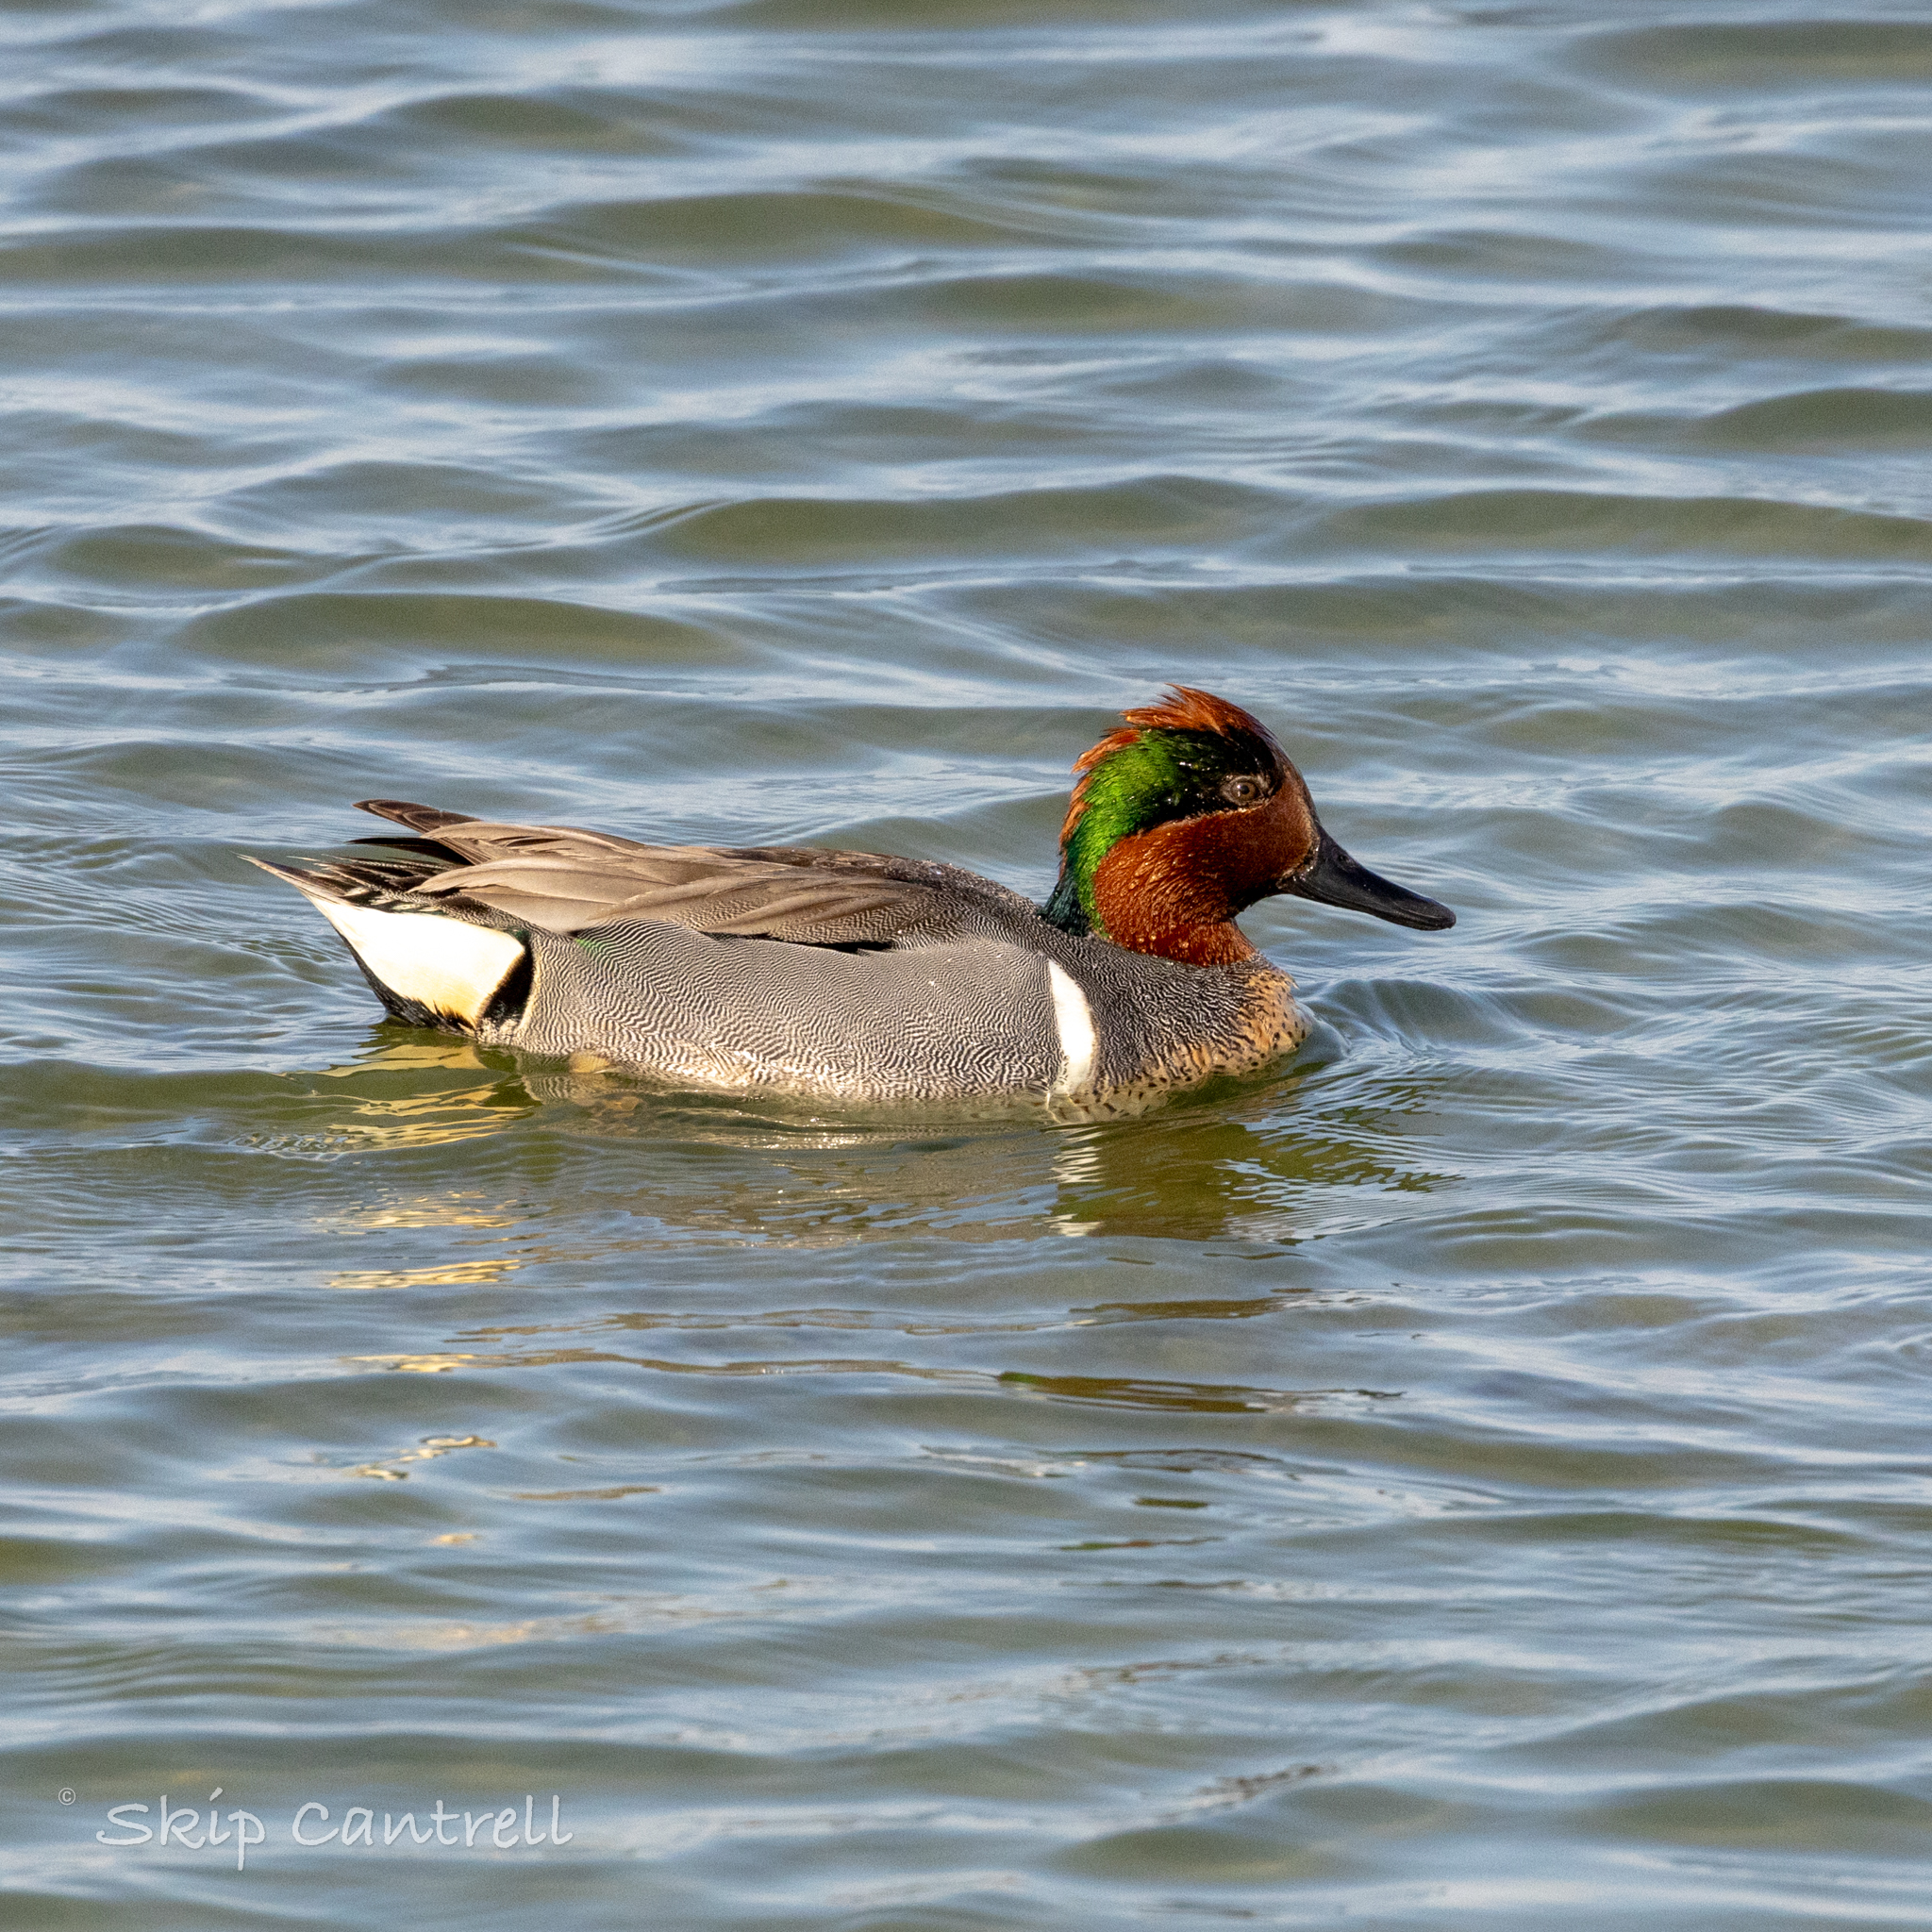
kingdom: Animalia
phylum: Chordata
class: Aves
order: Anseriformes
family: Anatidae
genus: Anas
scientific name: Anas crecca
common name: Eurasian teal
